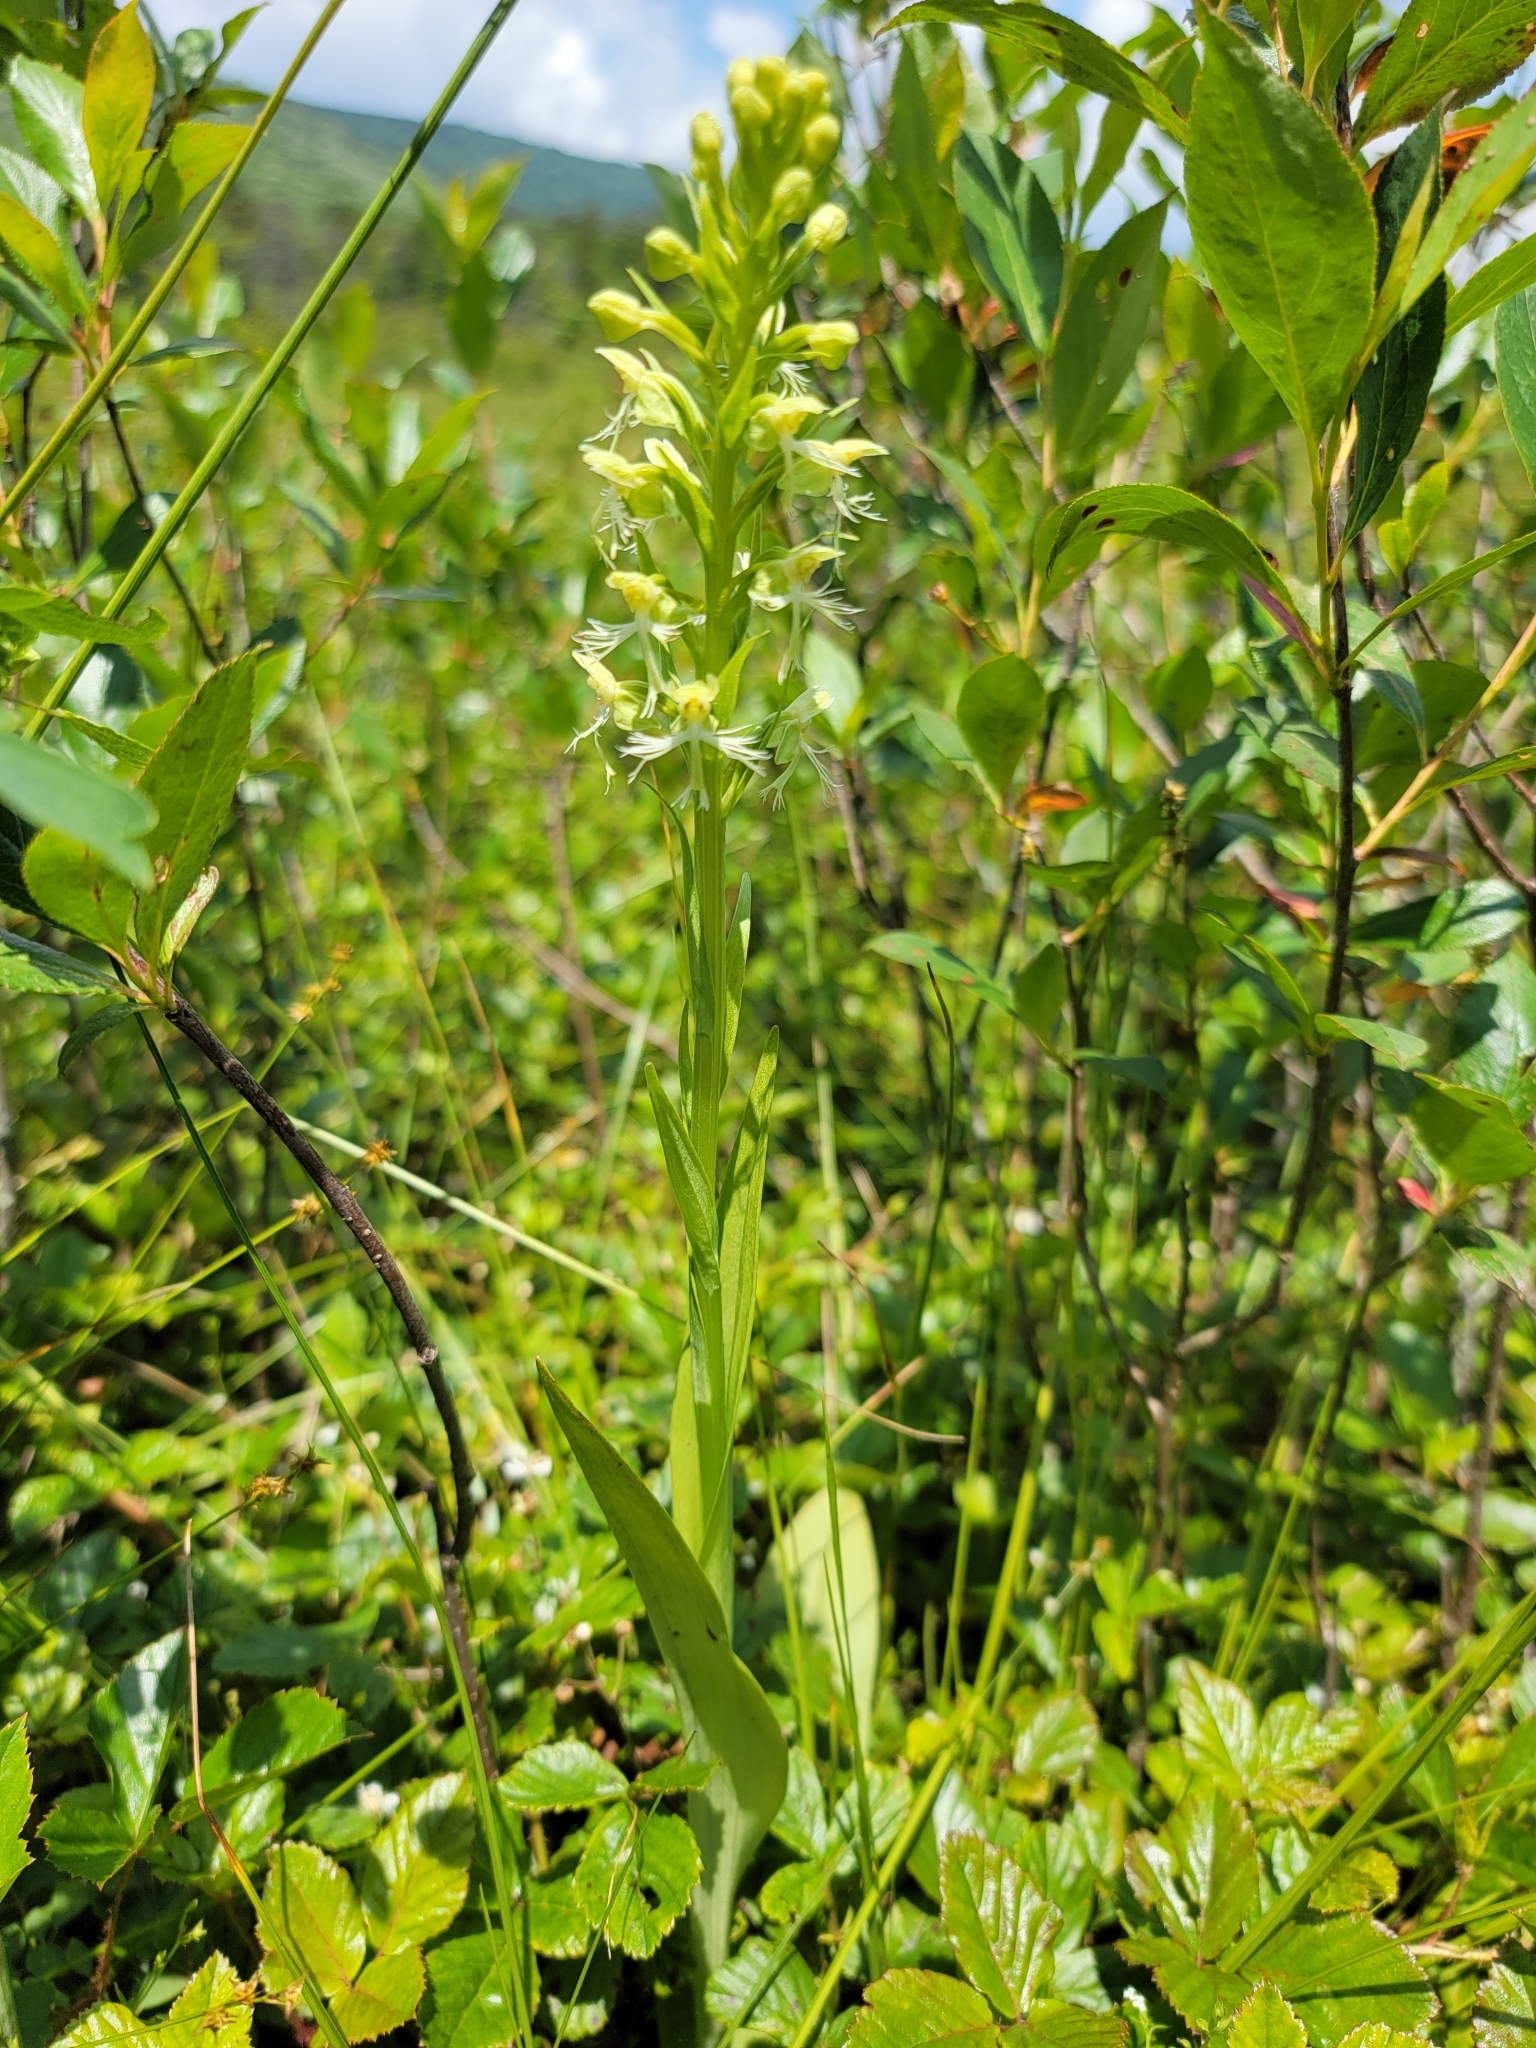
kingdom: Plantae
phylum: Tracheophyta
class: Liliopsida
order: Asparagales
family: Orchidaceae
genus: Platanthera
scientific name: Platanthera lacera
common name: Green fringed orchid
